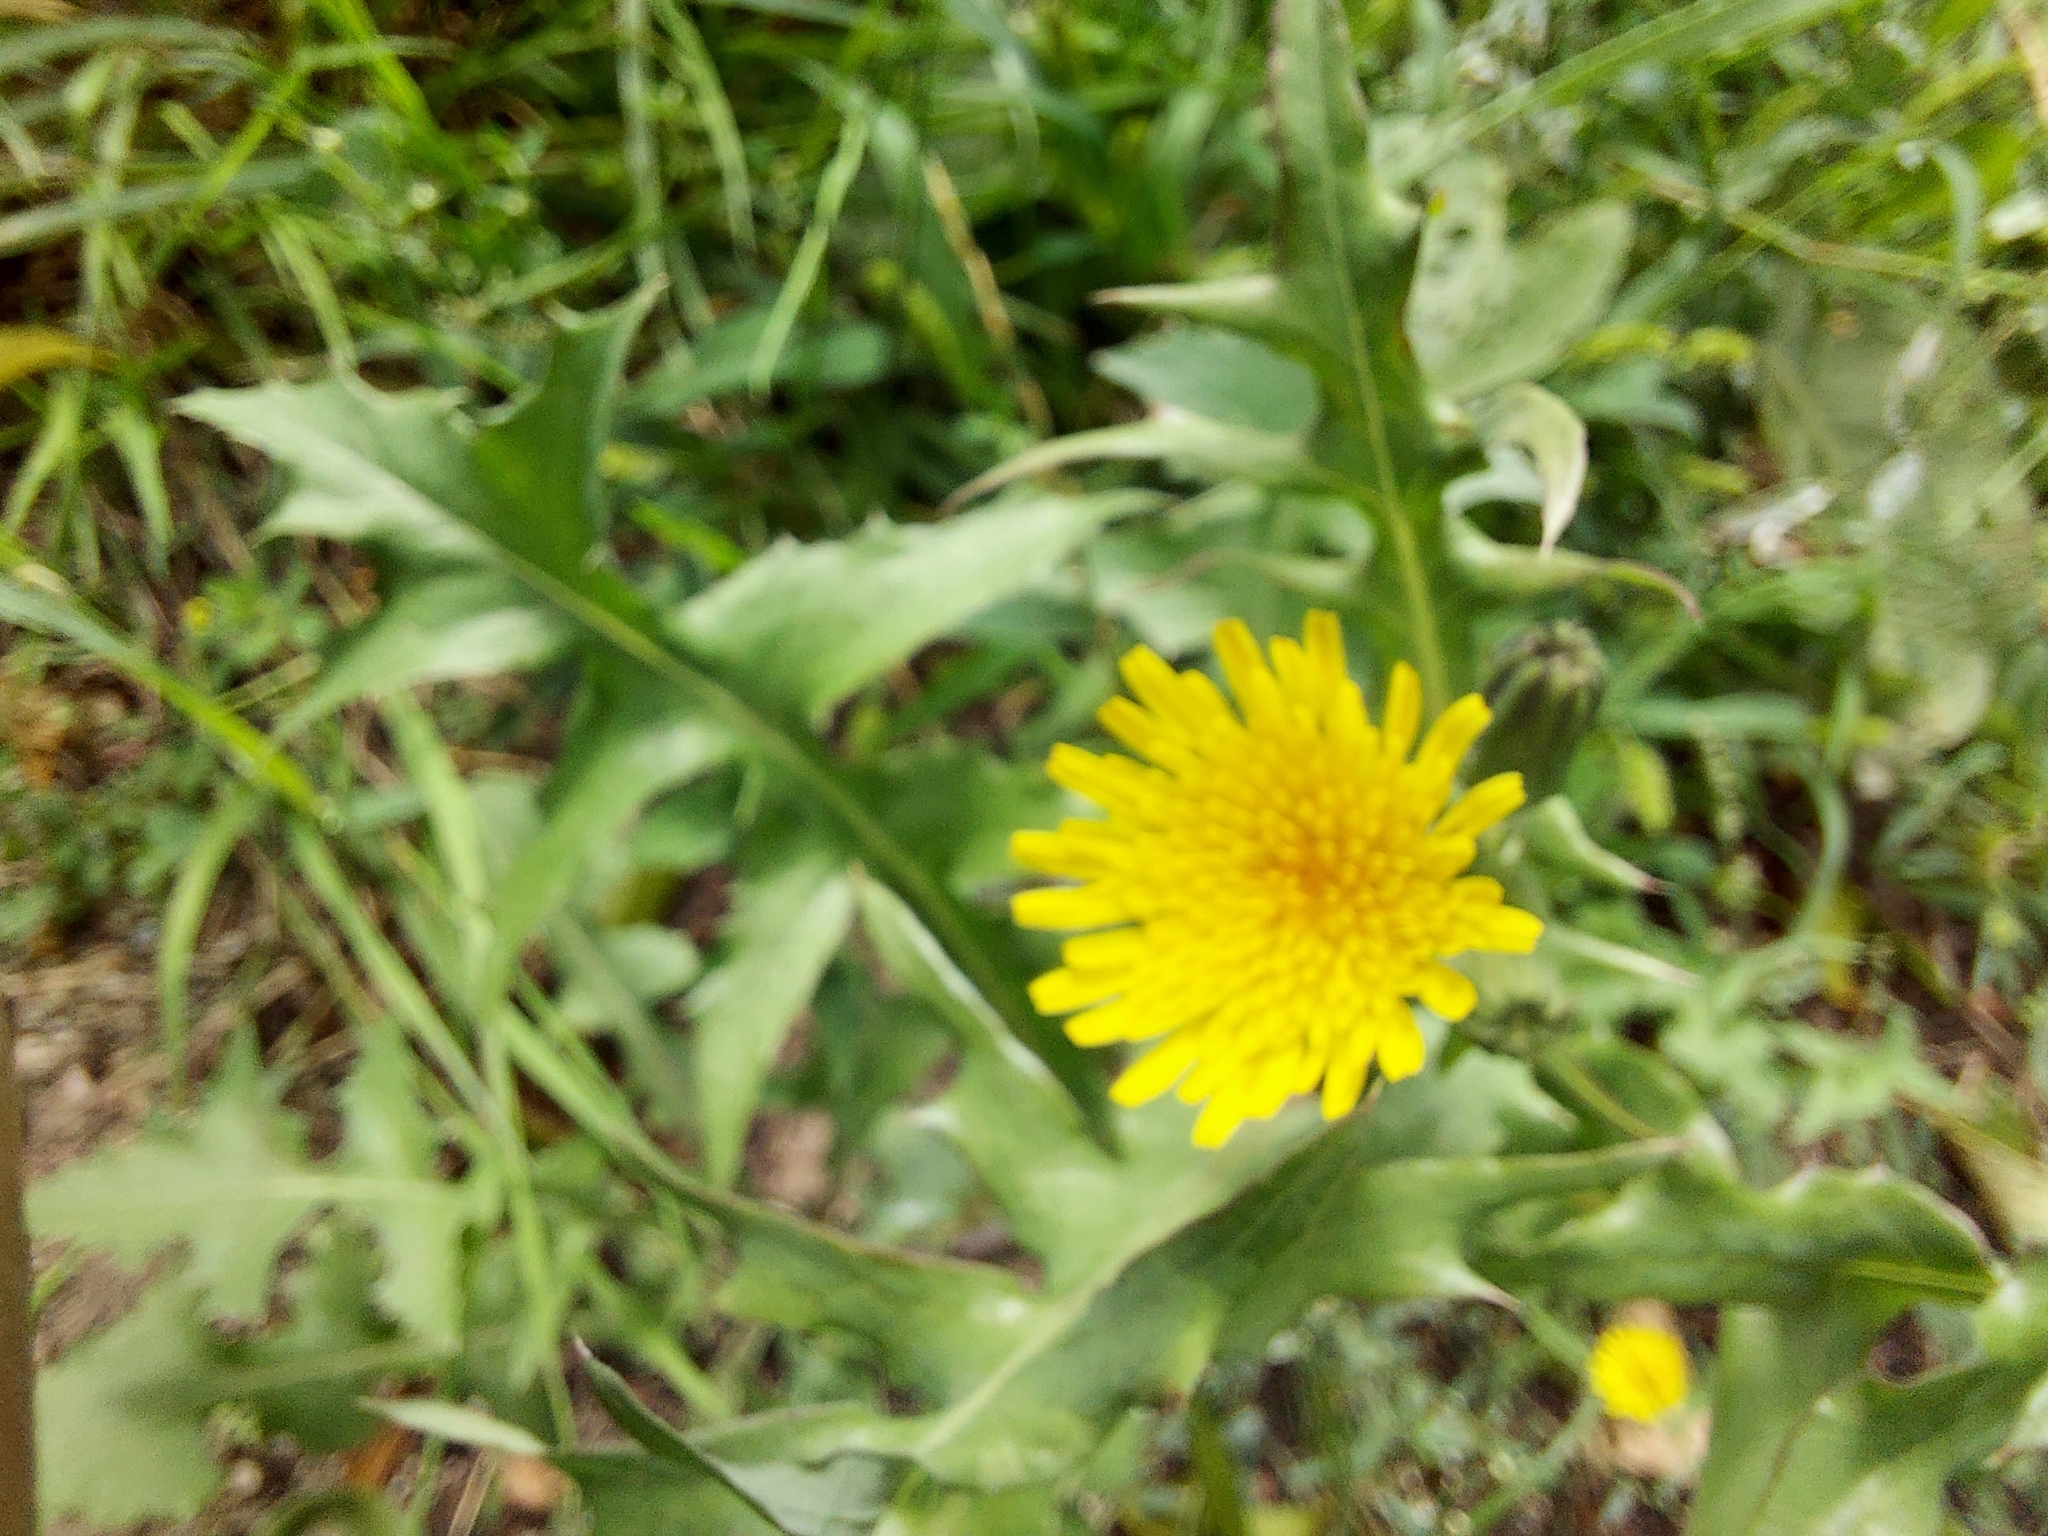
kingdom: Plantae
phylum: Tracheophyta
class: Magnoliopsida
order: Asterales
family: Asteraceae
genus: Sonchus
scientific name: Sonchus oleraceus
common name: Common sowthistle
